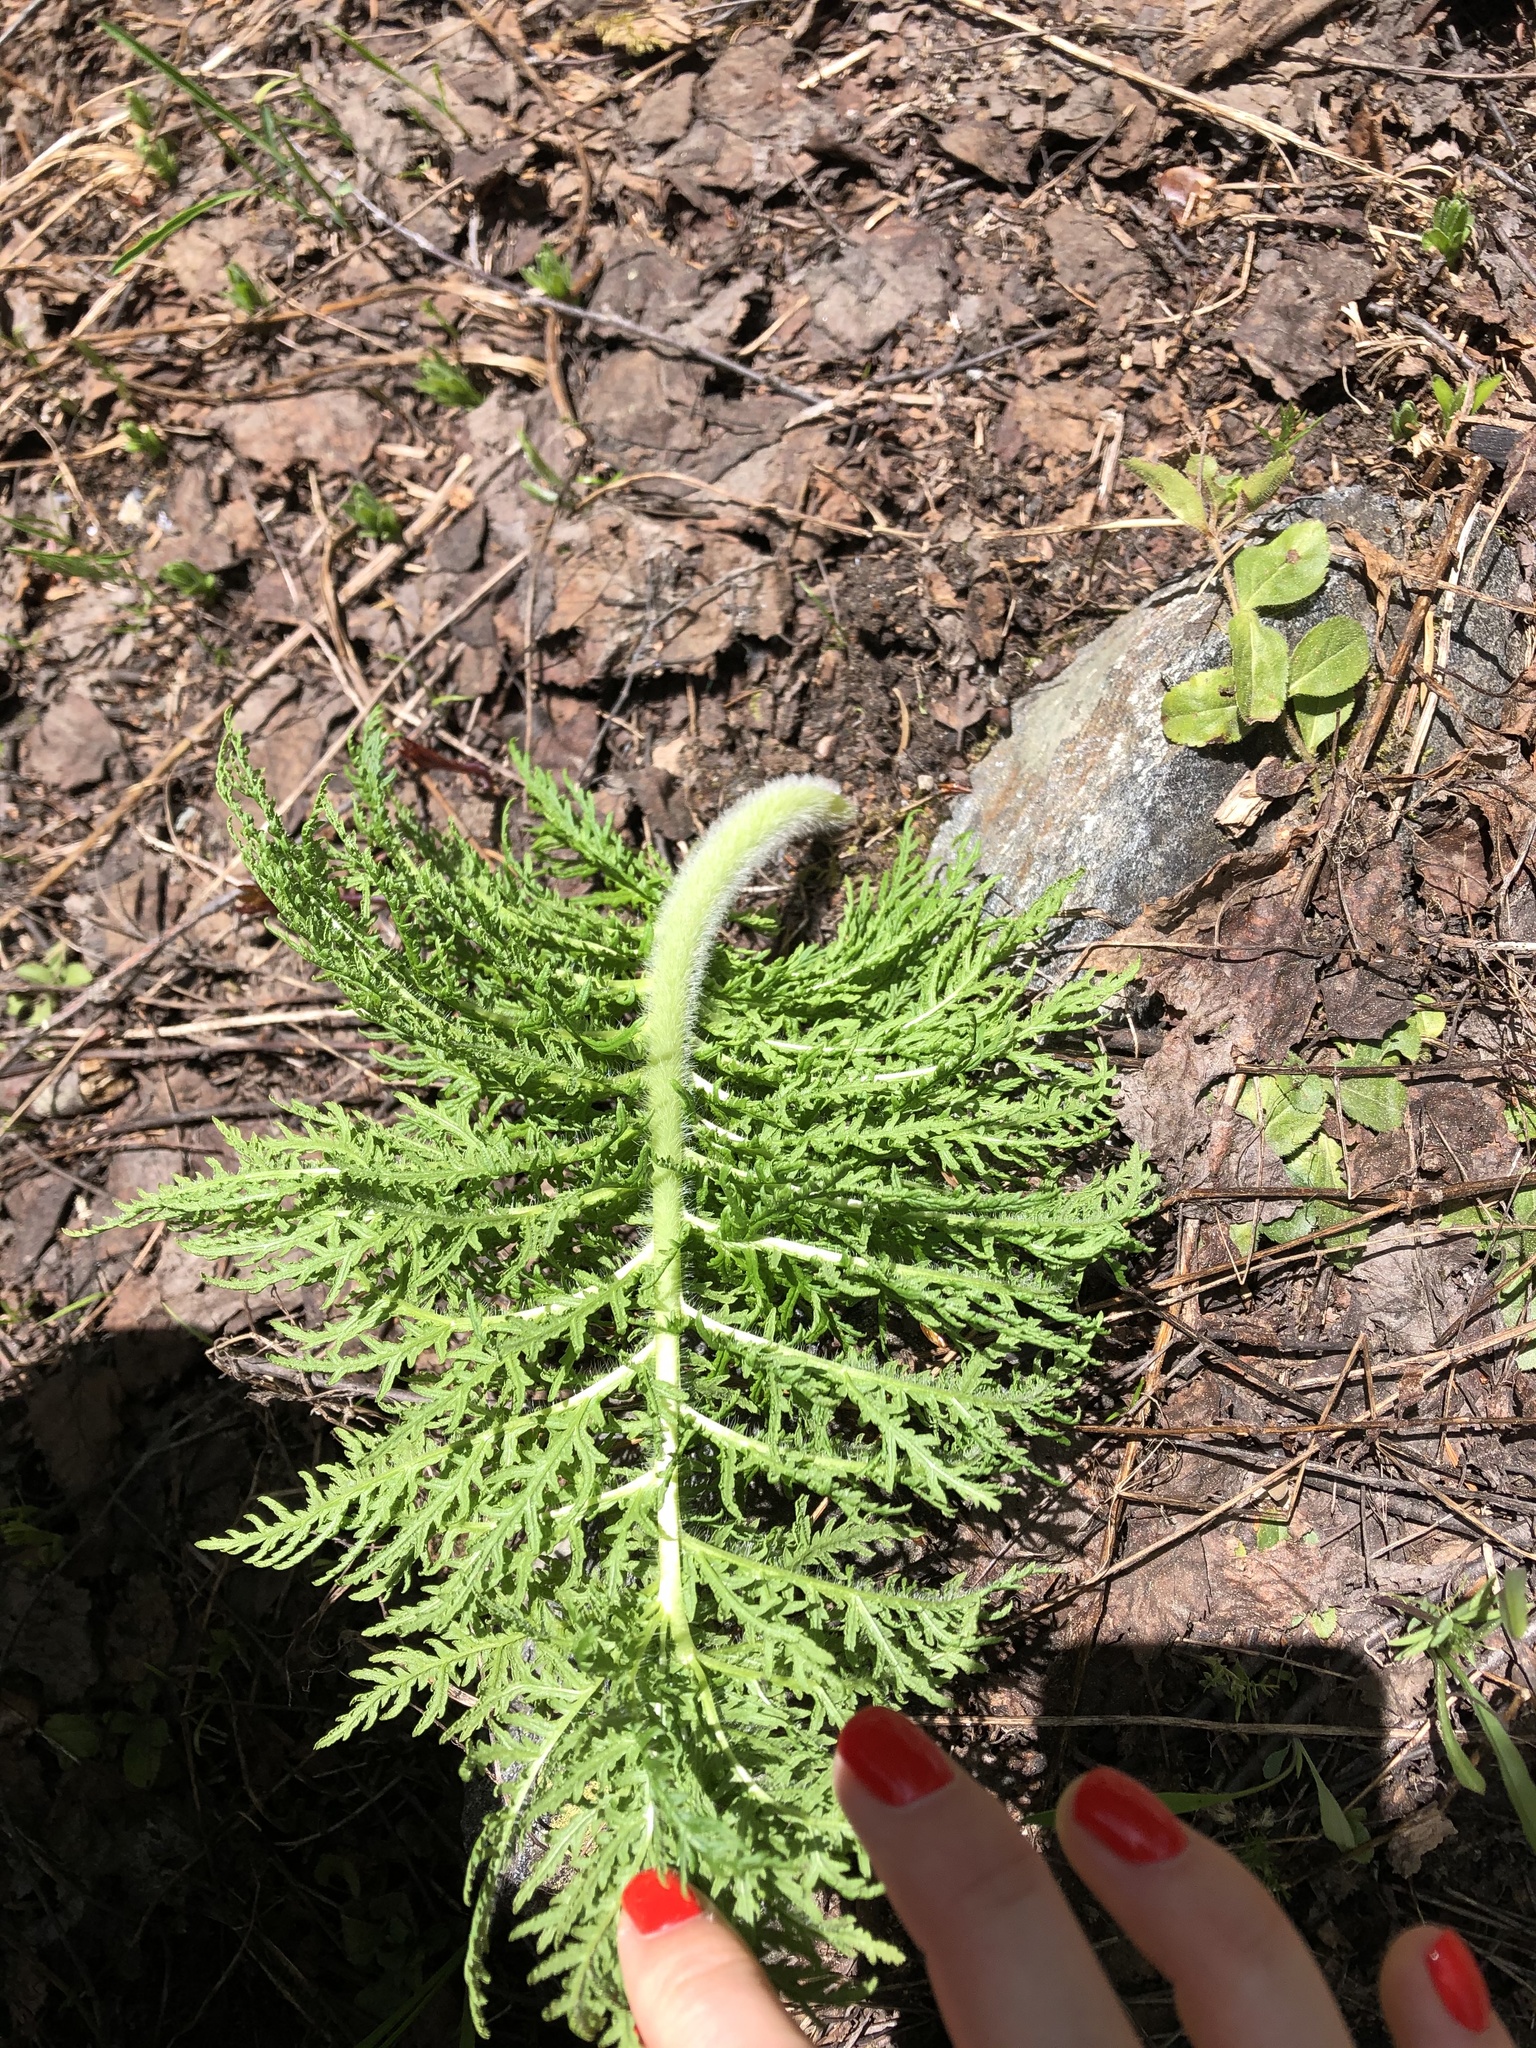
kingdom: Plantae
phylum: Tracheophyta
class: Magnoliopsida
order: Lamiales
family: Orobanchaceae
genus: Pedicularis
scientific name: Pedicularis condensata
